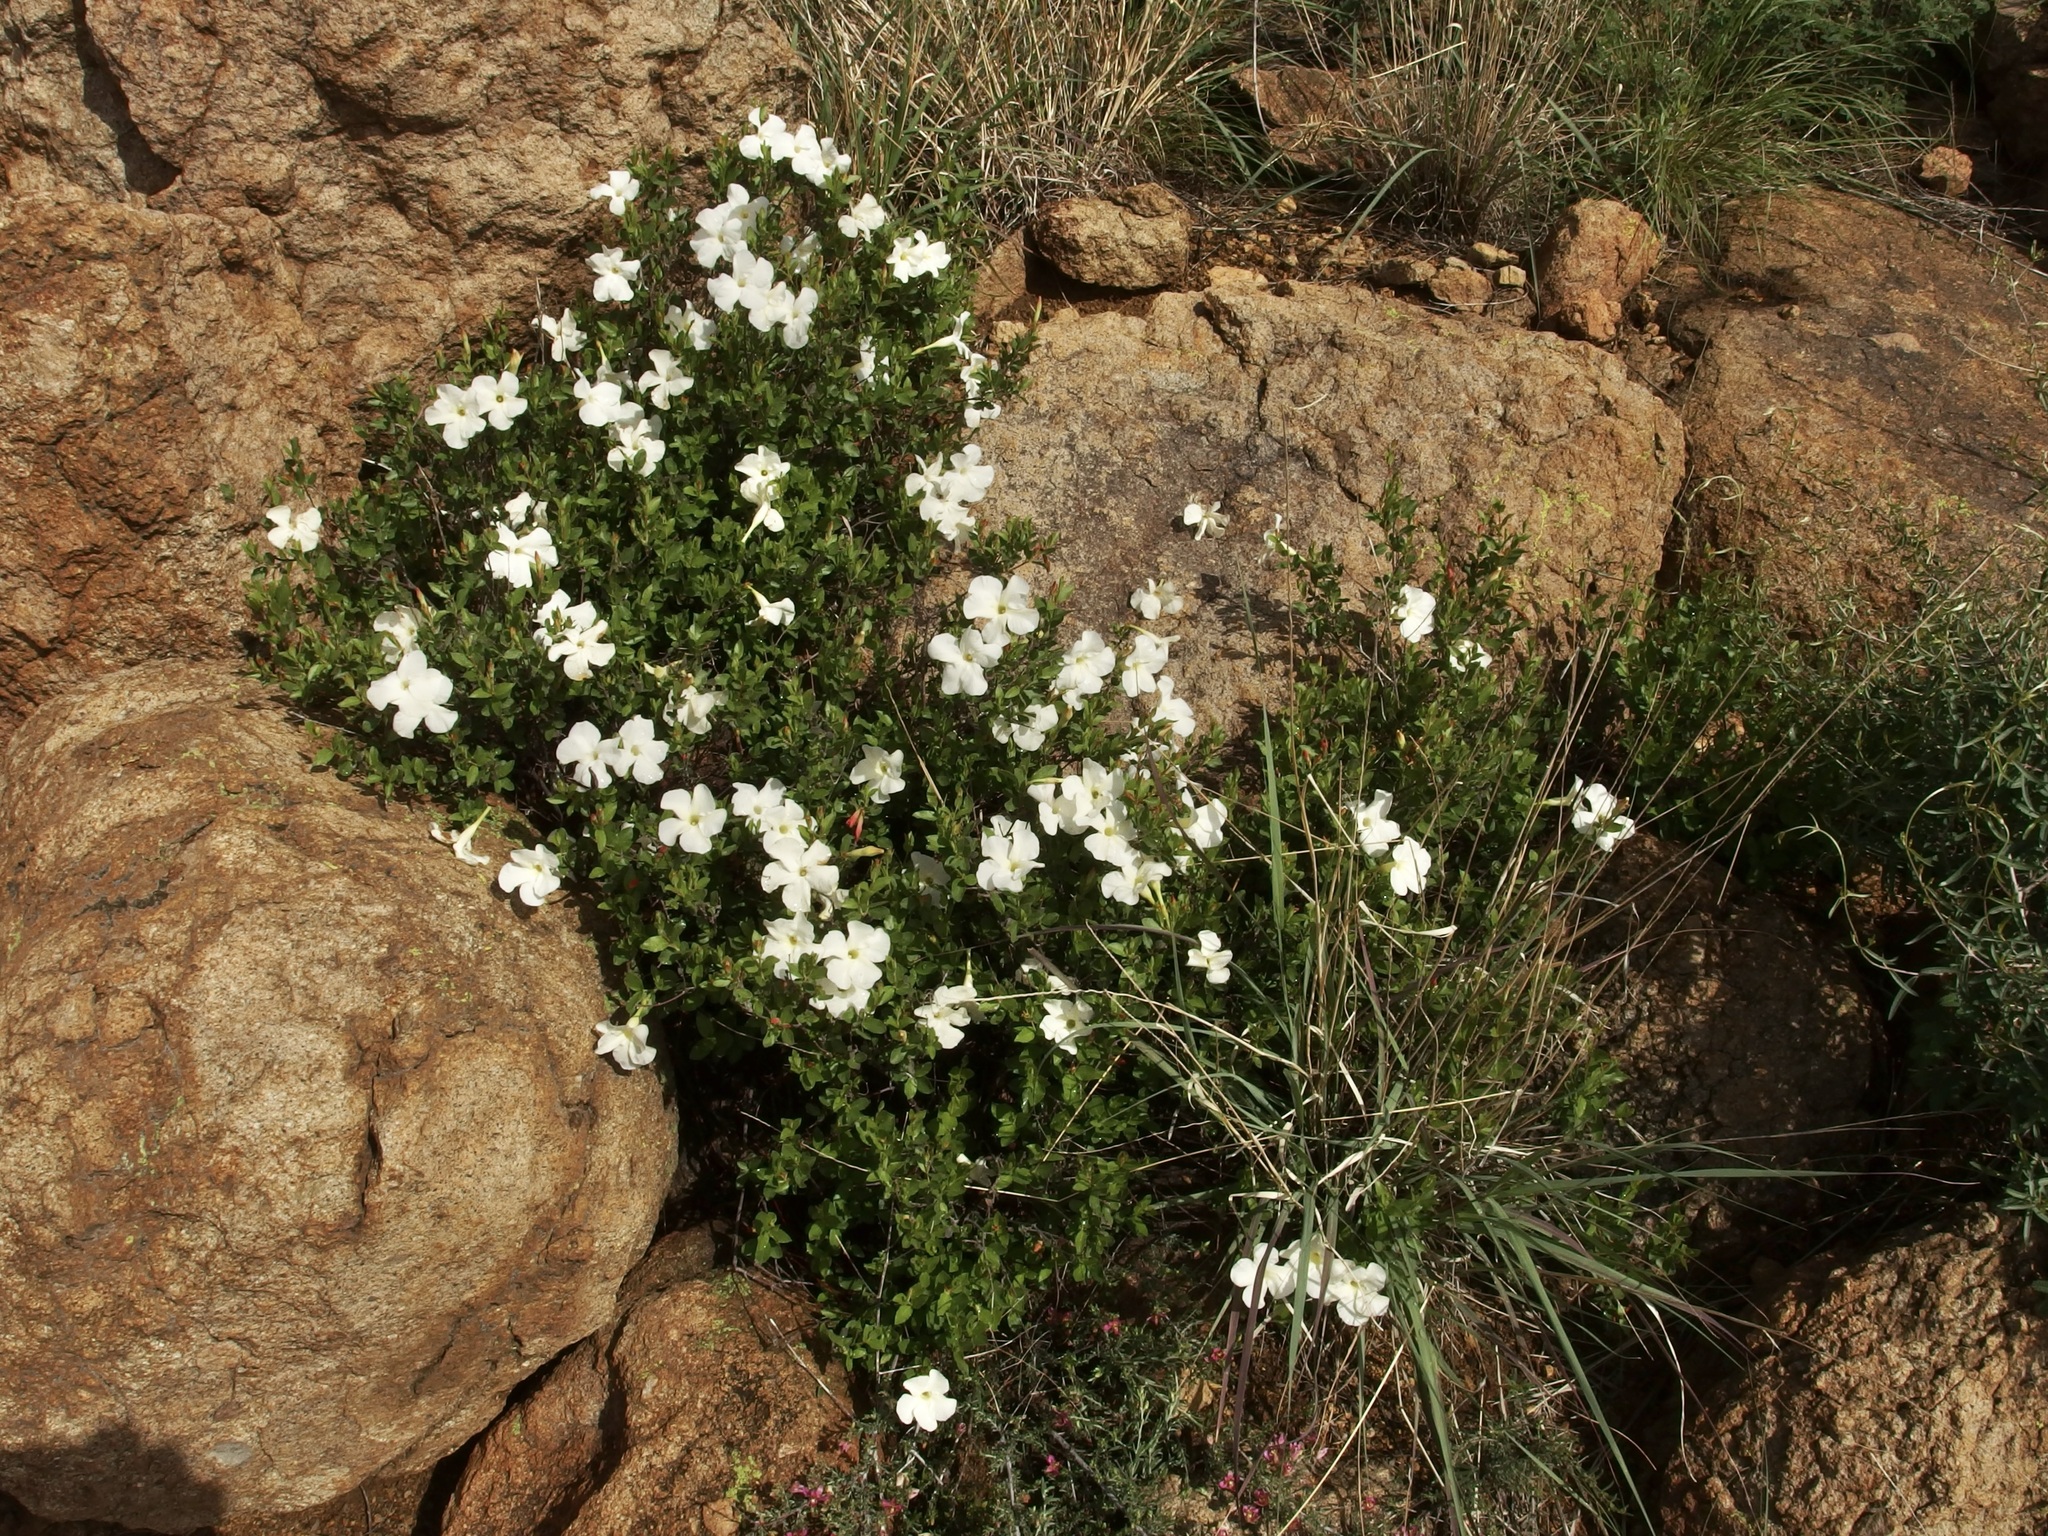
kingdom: Plantae
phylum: Tracheophyta
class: Magnoliopsida
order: Gentianales
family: Apocynaceae
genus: Mandevilla
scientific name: Mandevilla brachysiphon
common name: Huachuca mountain rocktrumpet
